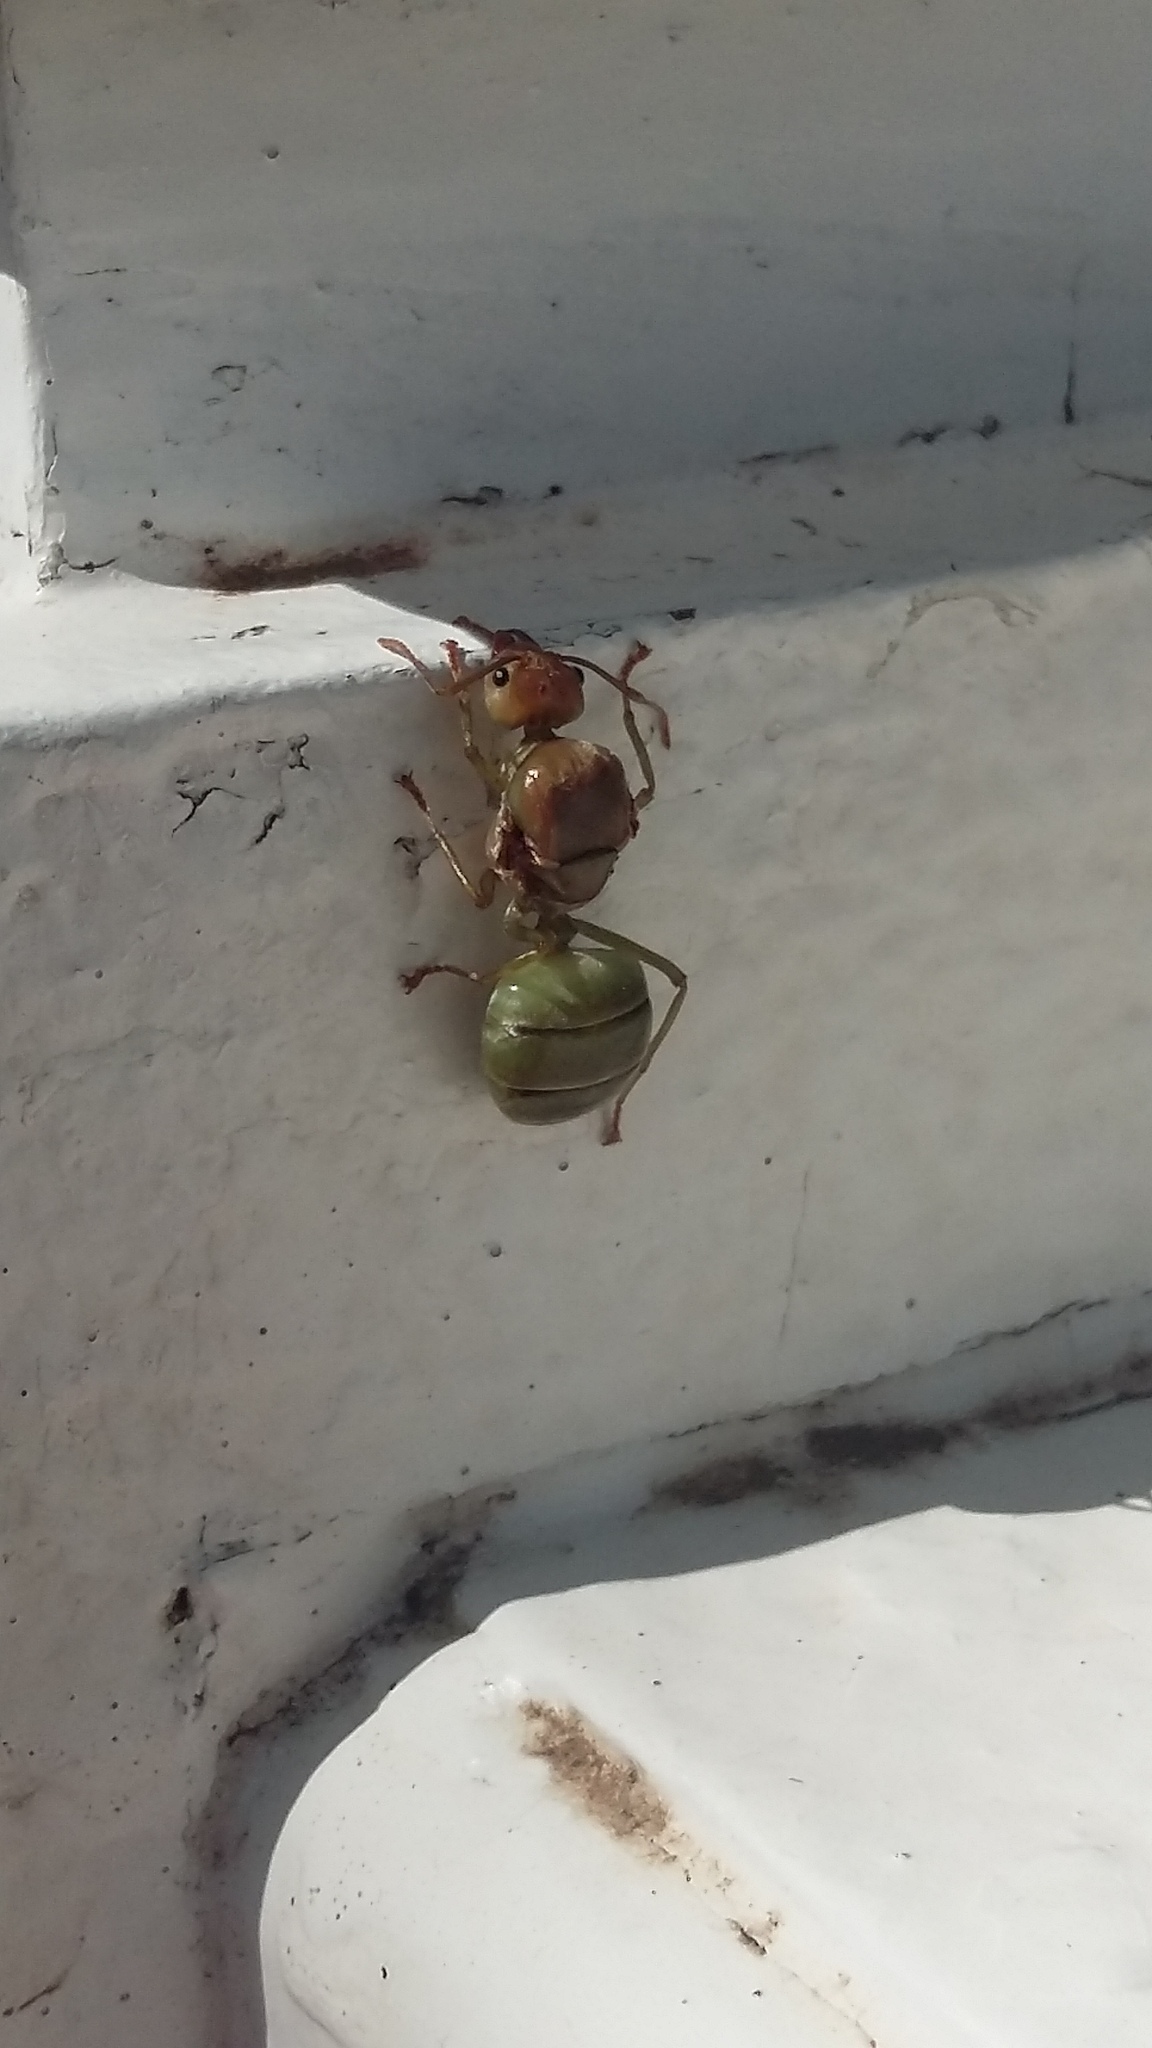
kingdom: Animalia
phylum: Arthropoda
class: Insecta
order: Hymenoptera
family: Formicidae
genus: Oecophylla
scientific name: Oecophylla smaragdina
